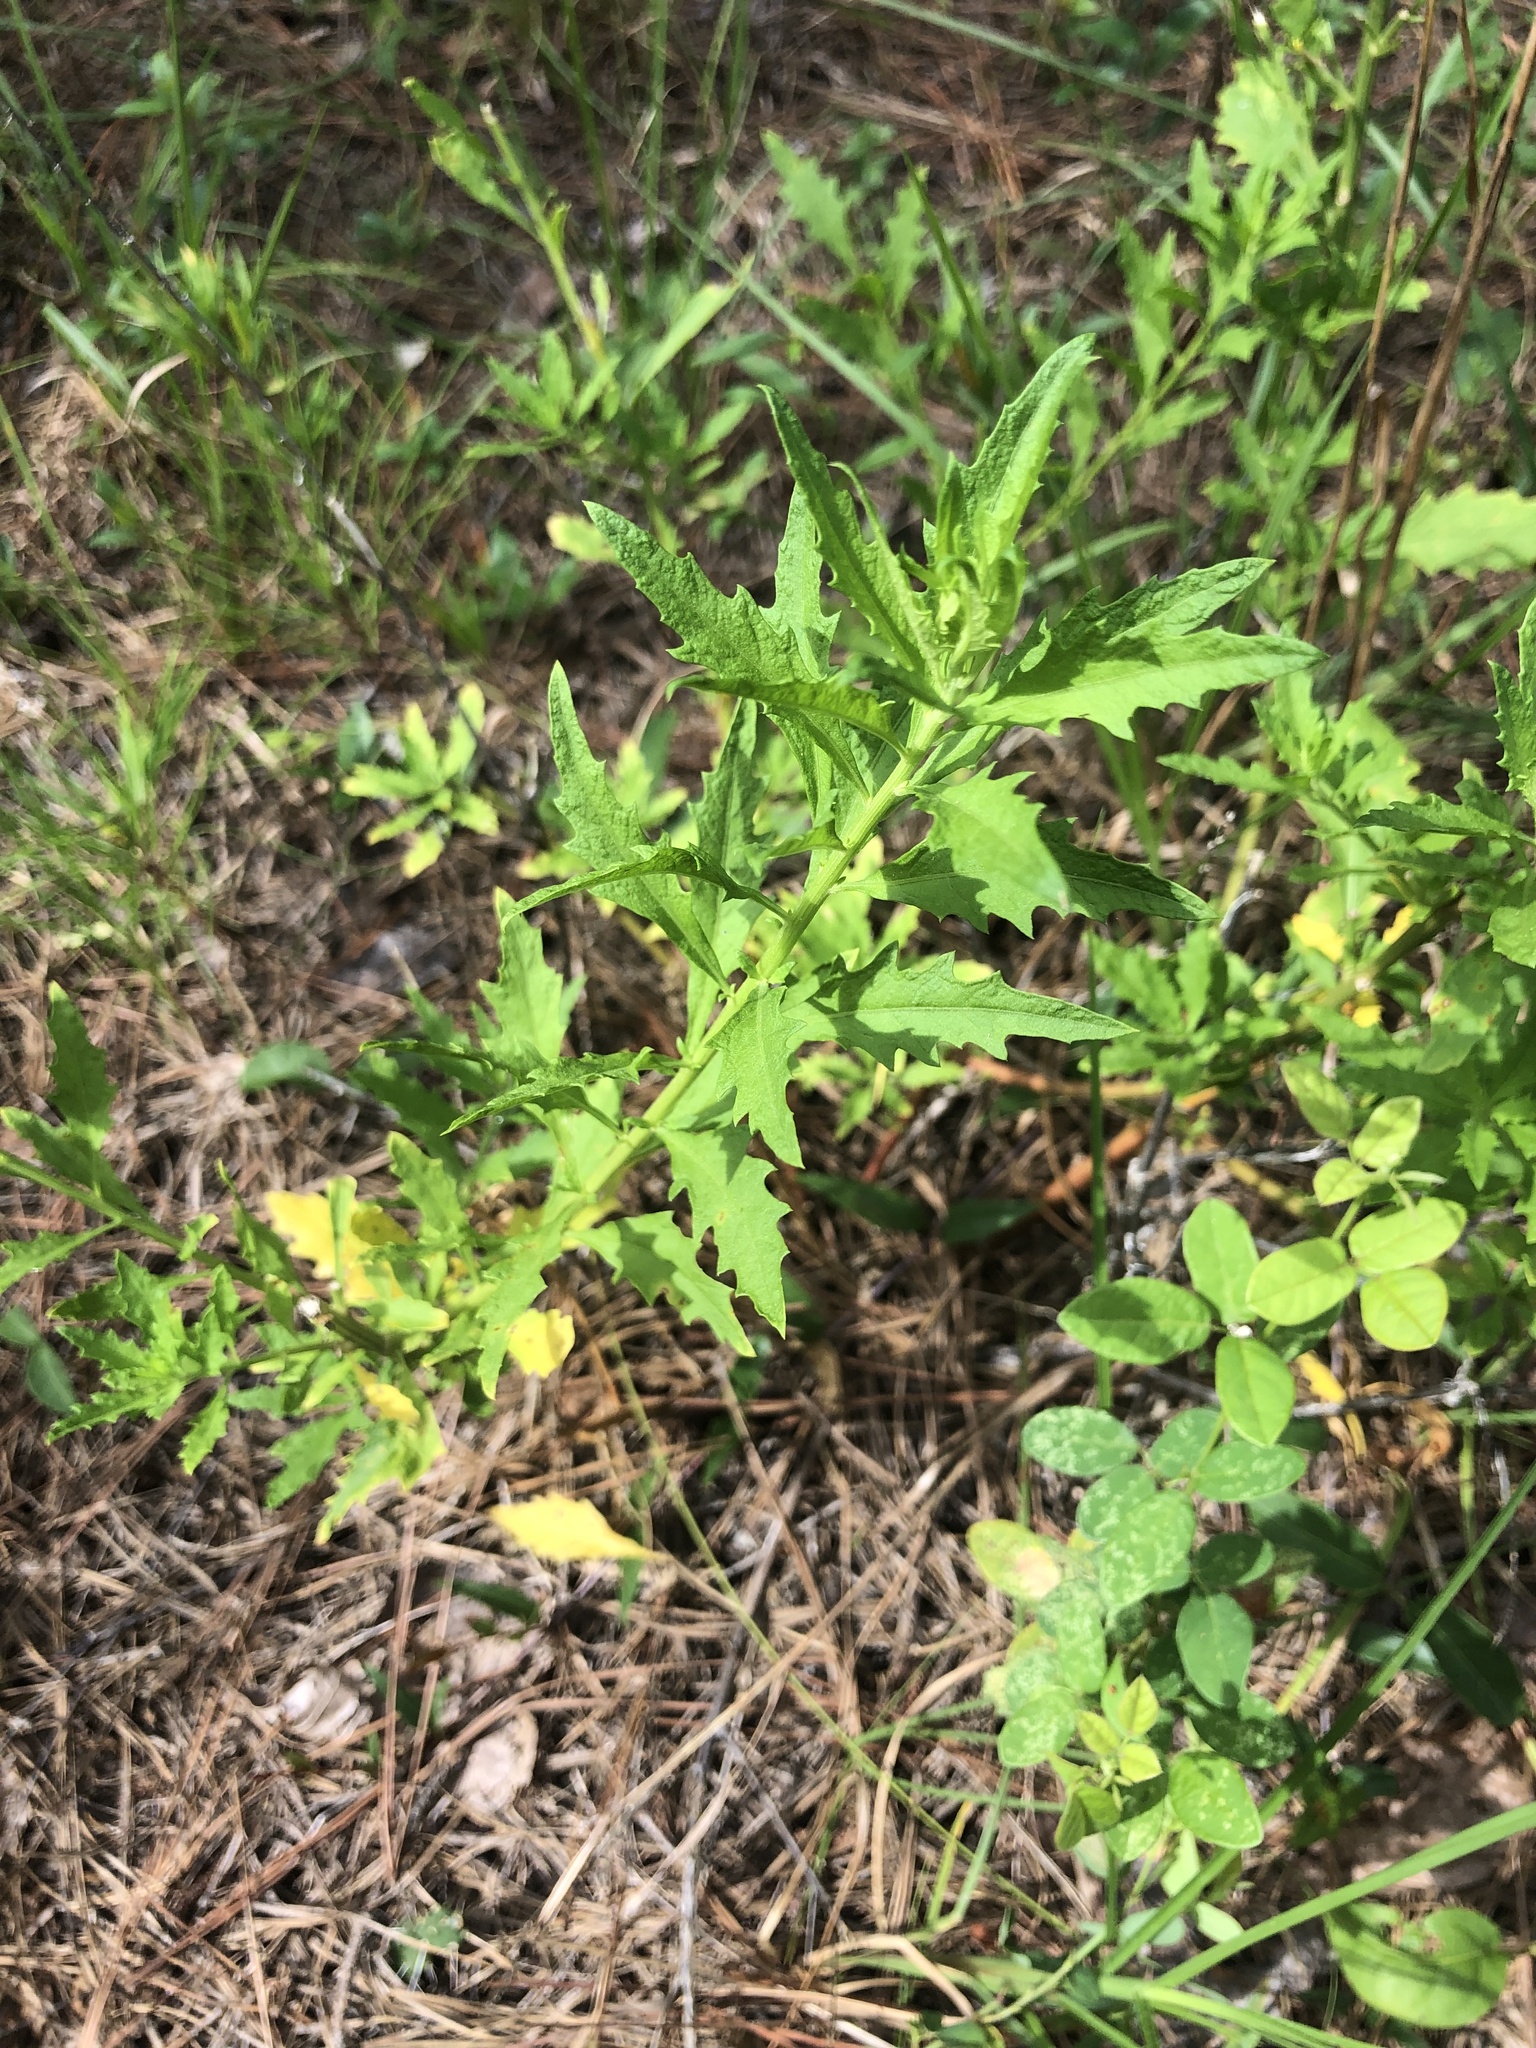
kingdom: Plantae
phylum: Tracheophyta
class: Magnoliopsida
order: Caryophyllales
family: Amaranthaceae
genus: Dysphania
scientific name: Dysphania ambrosioides
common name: Wormseed
